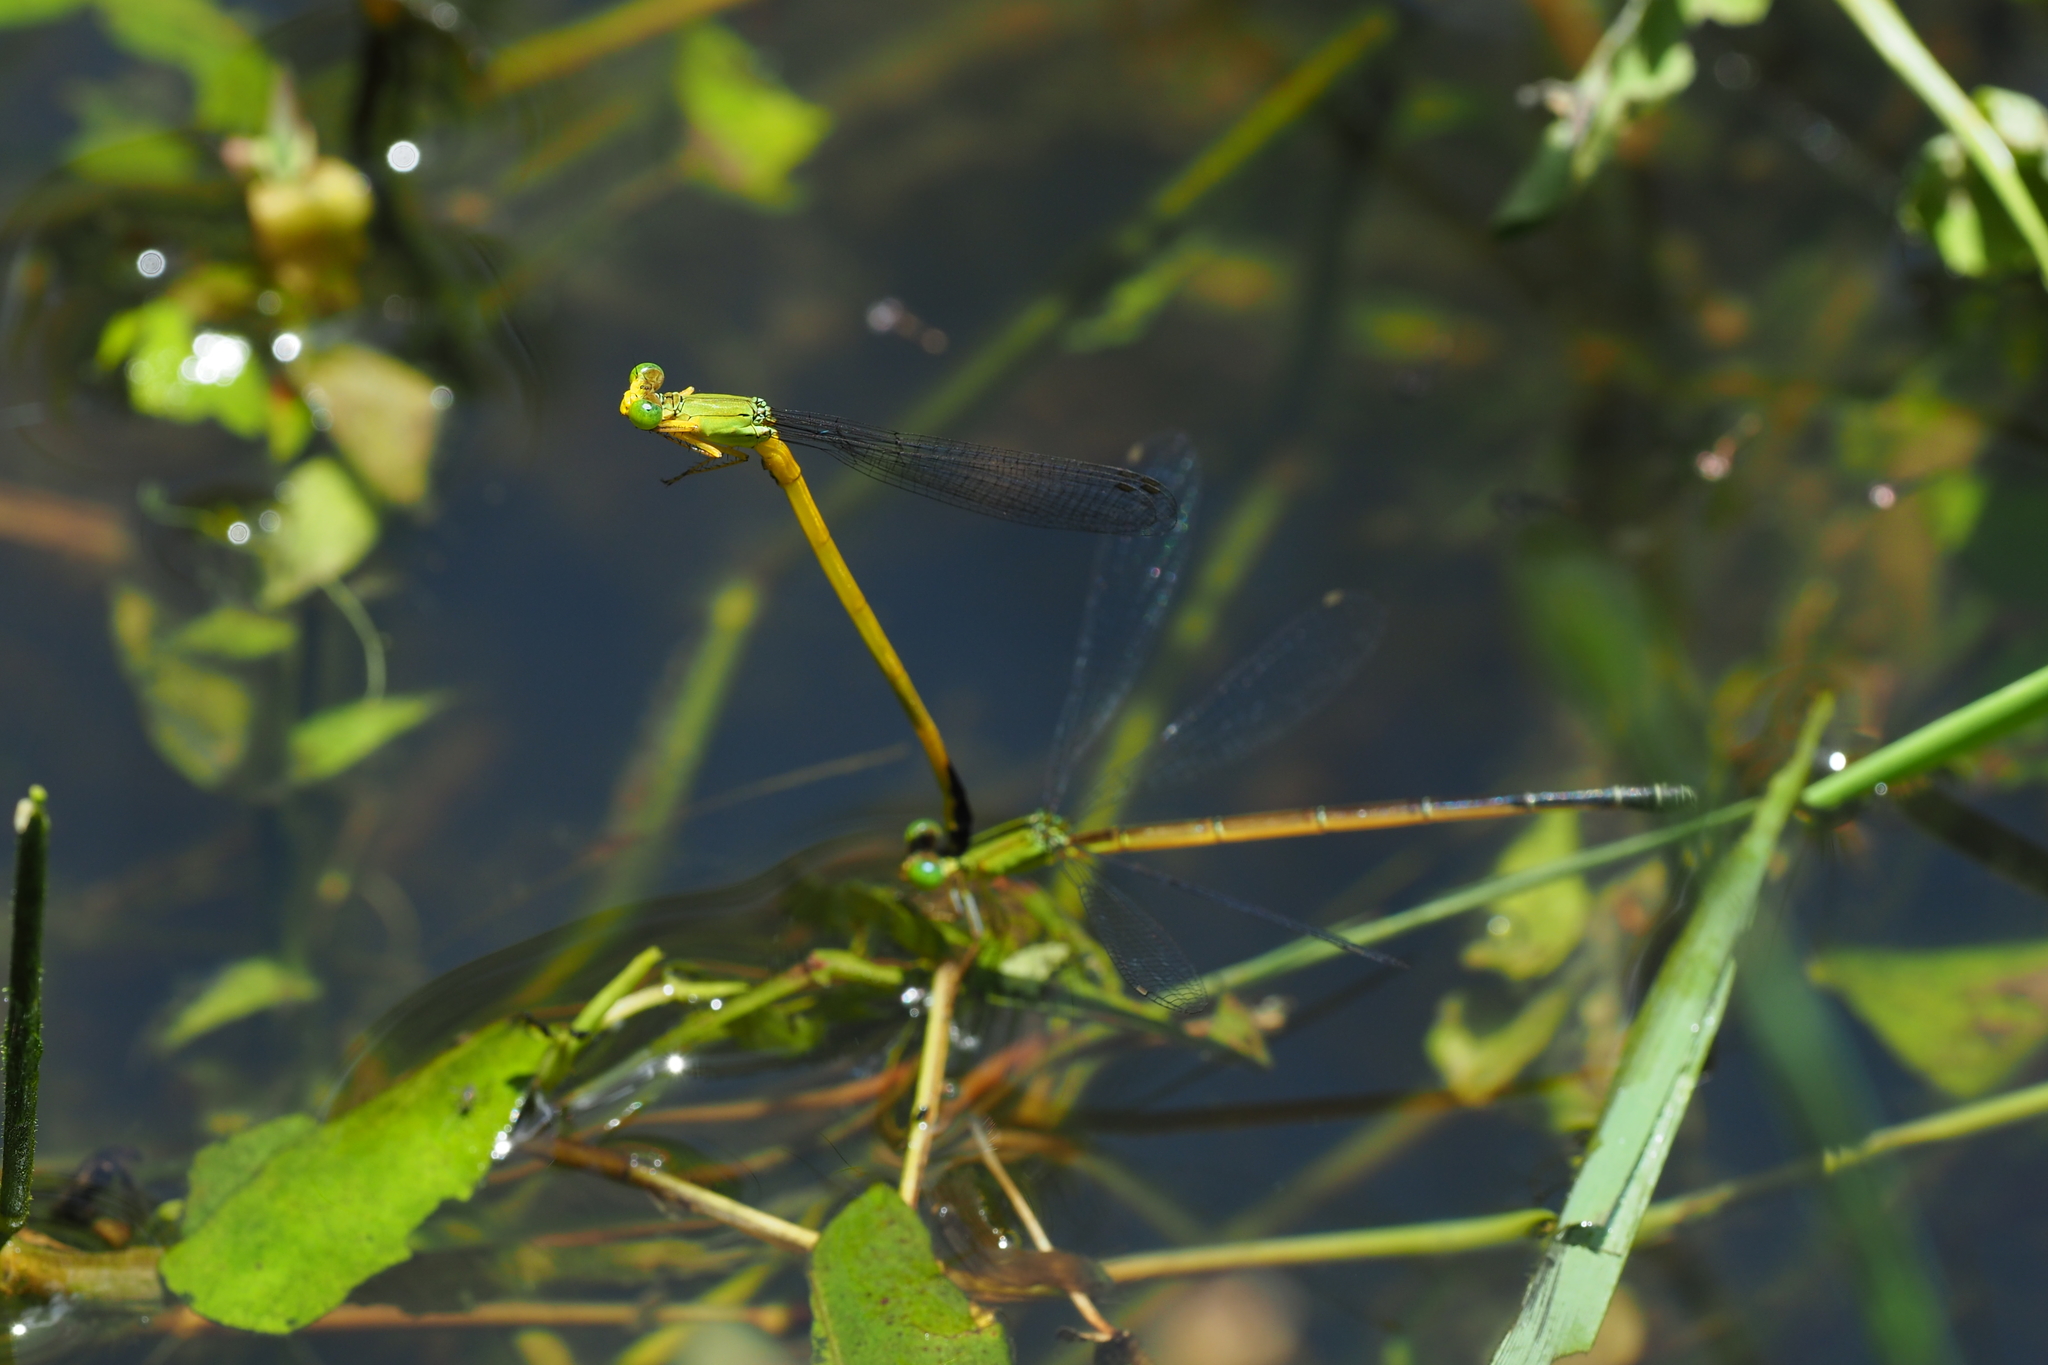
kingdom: Animalia
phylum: Arthropoda
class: Insecta
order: Odonata
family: Coenagrionidae
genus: Ceriagrion
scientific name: Ceriagrion fallax
